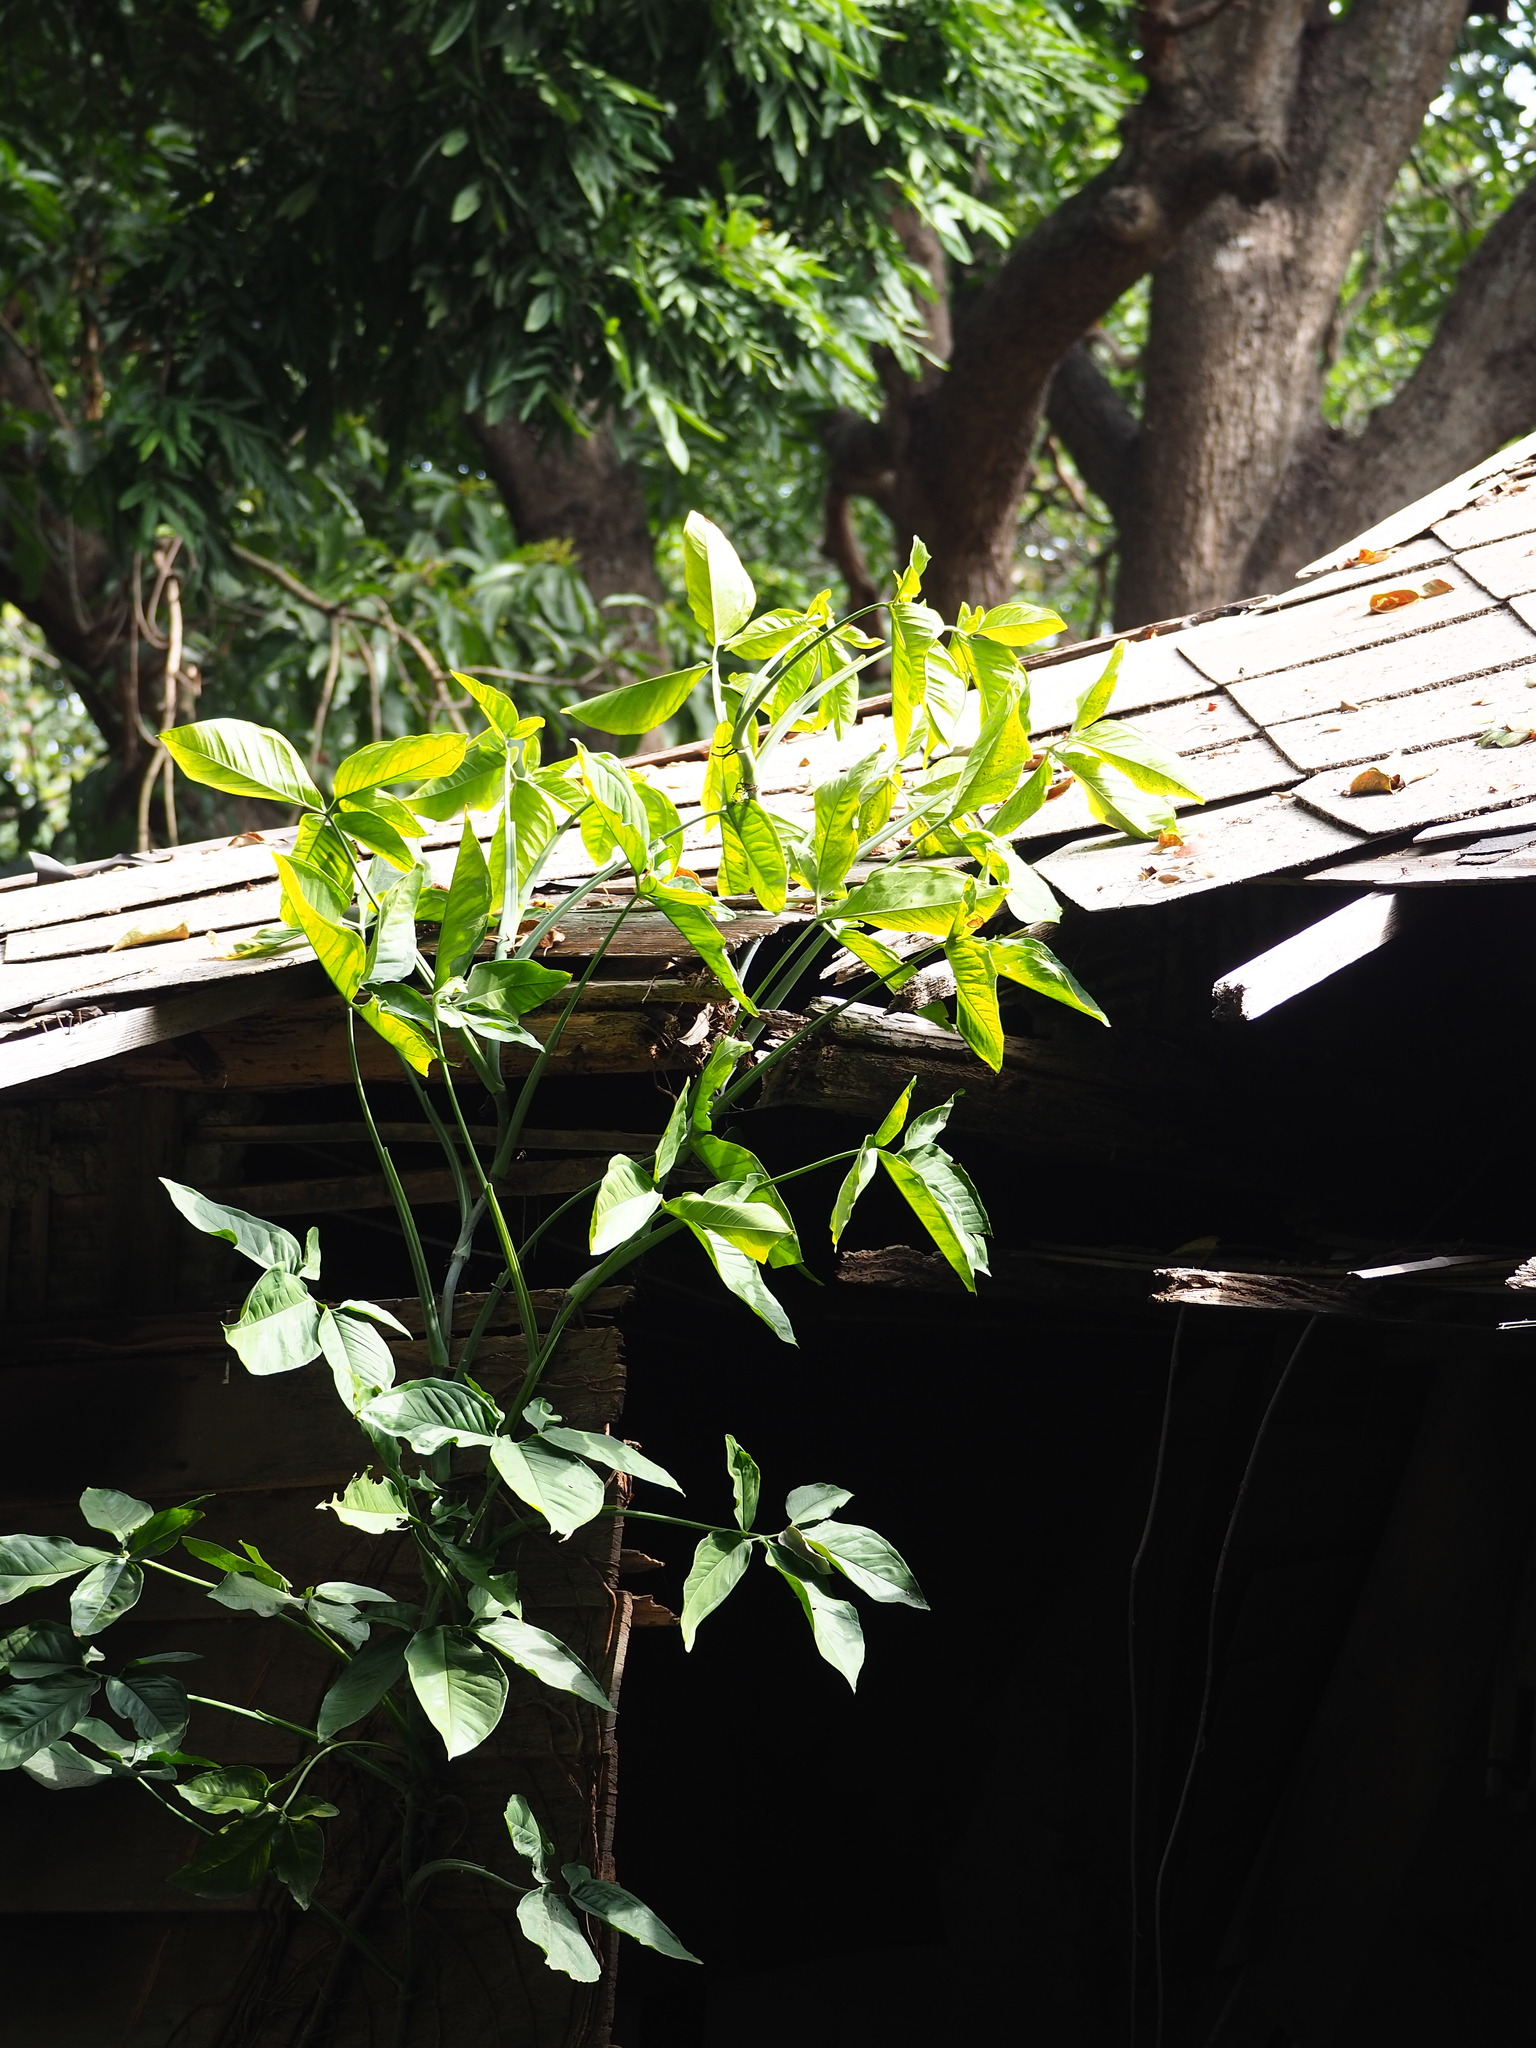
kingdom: Plantae
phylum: Tracheophyta
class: Liliopsida
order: Alismatales
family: Araceae
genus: Syngonium
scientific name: Syngonium angustatum
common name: Fivefingers
